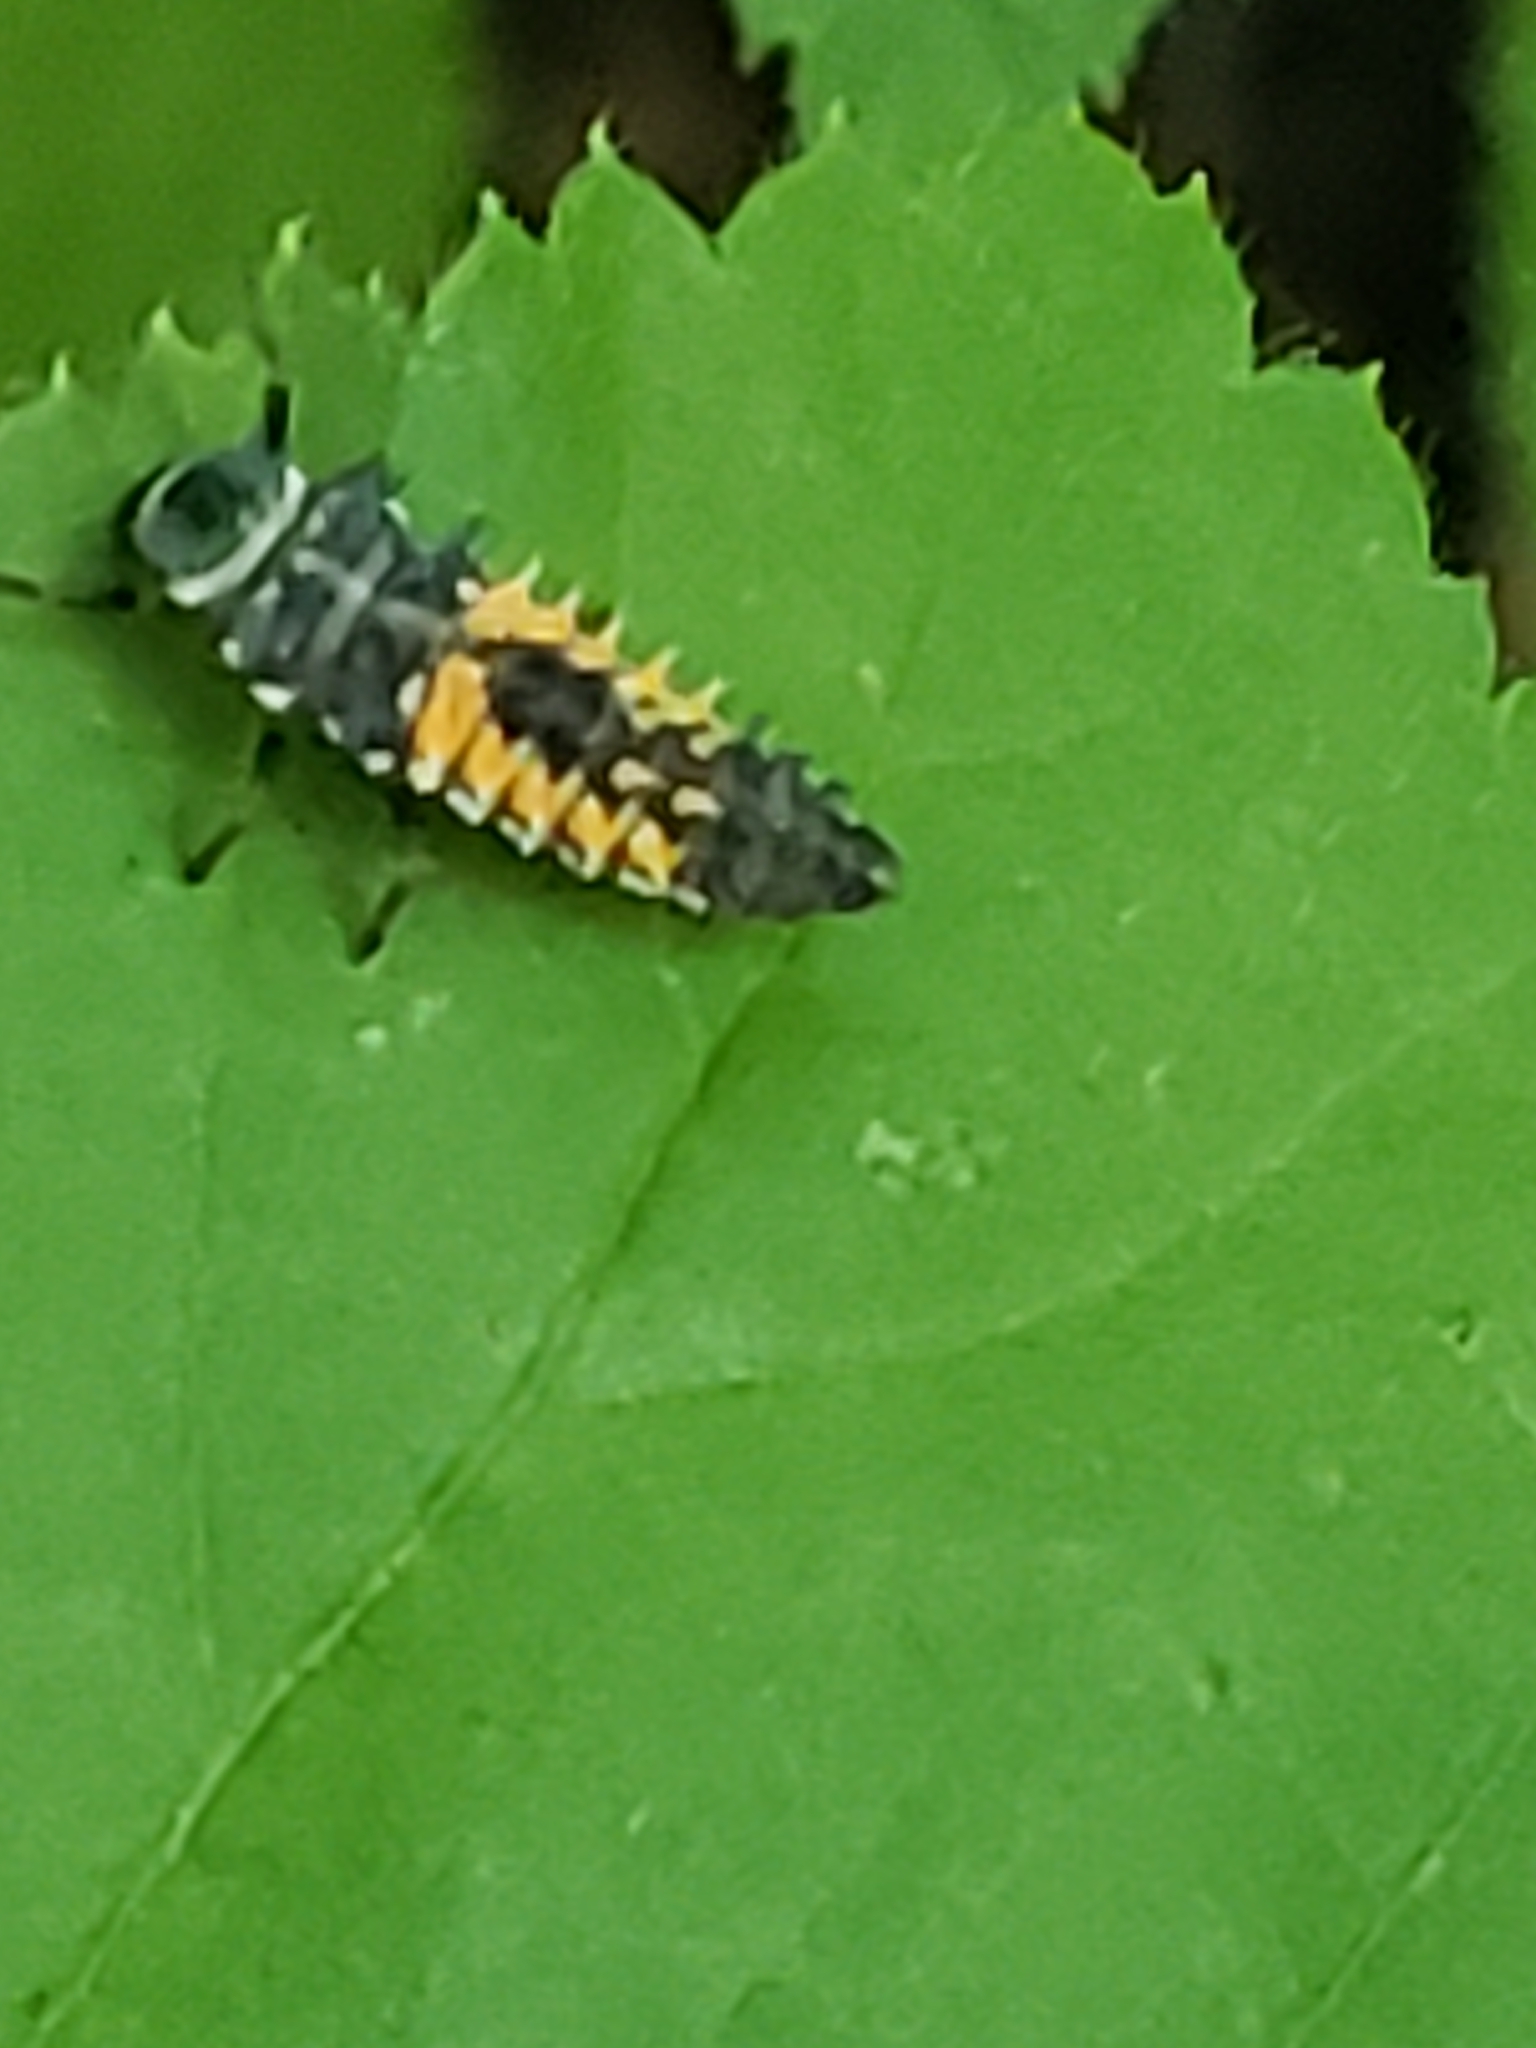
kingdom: Animalia
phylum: Arthropoda
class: Insecta
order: Coleoptera
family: Coccinellidae
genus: Harmonia
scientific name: Harmonia axyridis
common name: Harlequin ladybird
